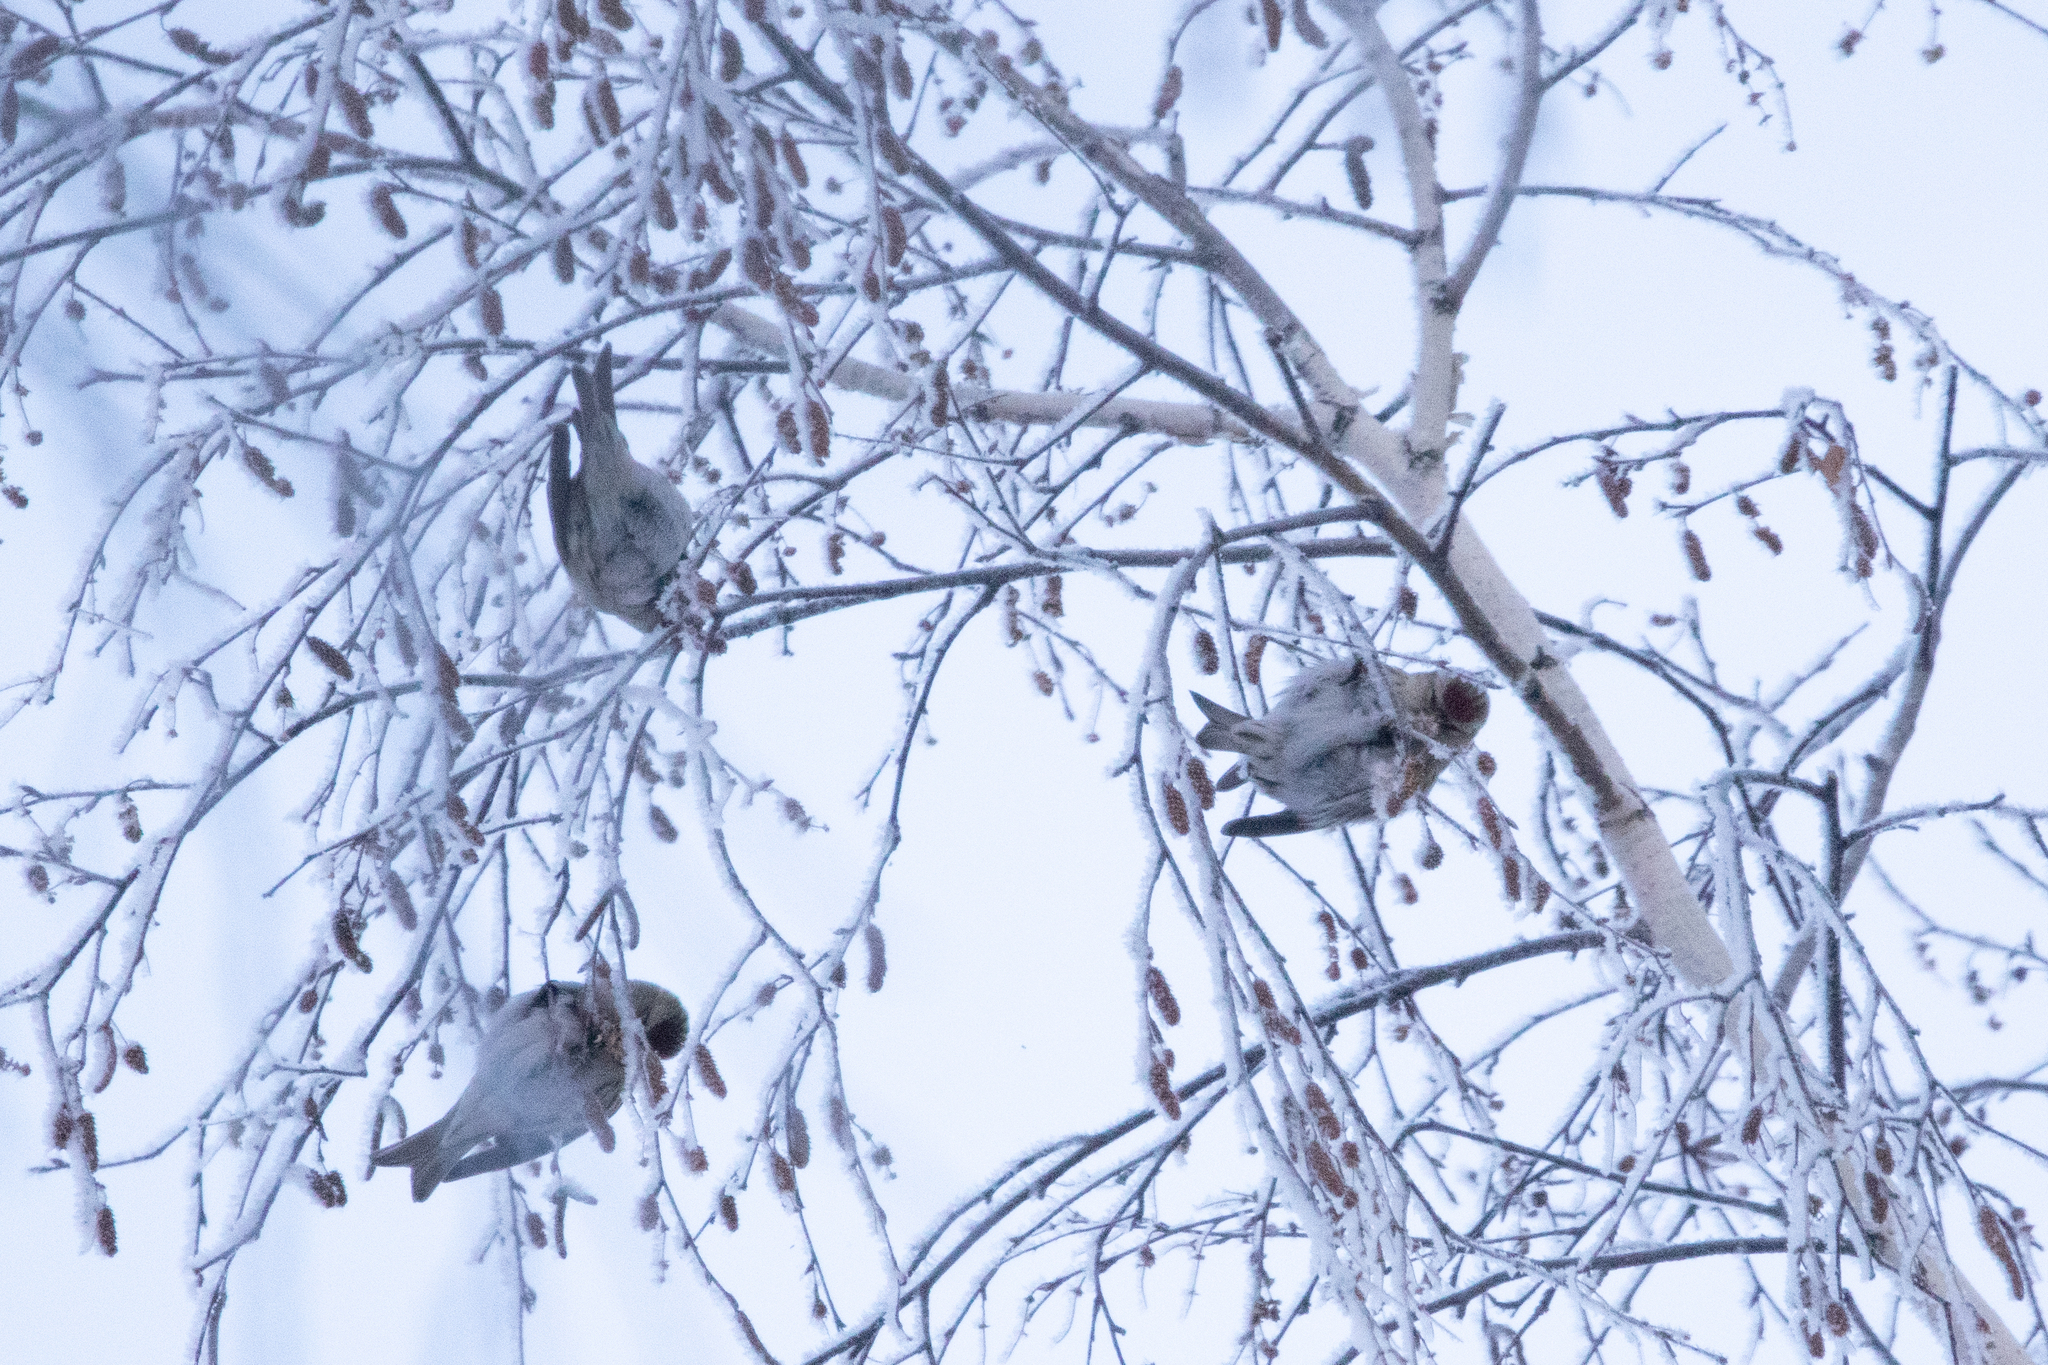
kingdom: Animalia
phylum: Chordata
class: Aves
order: Passeriformes
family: Fringillidae
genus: Acanthis
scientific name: Acanthis flammea
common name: Common redpoll
